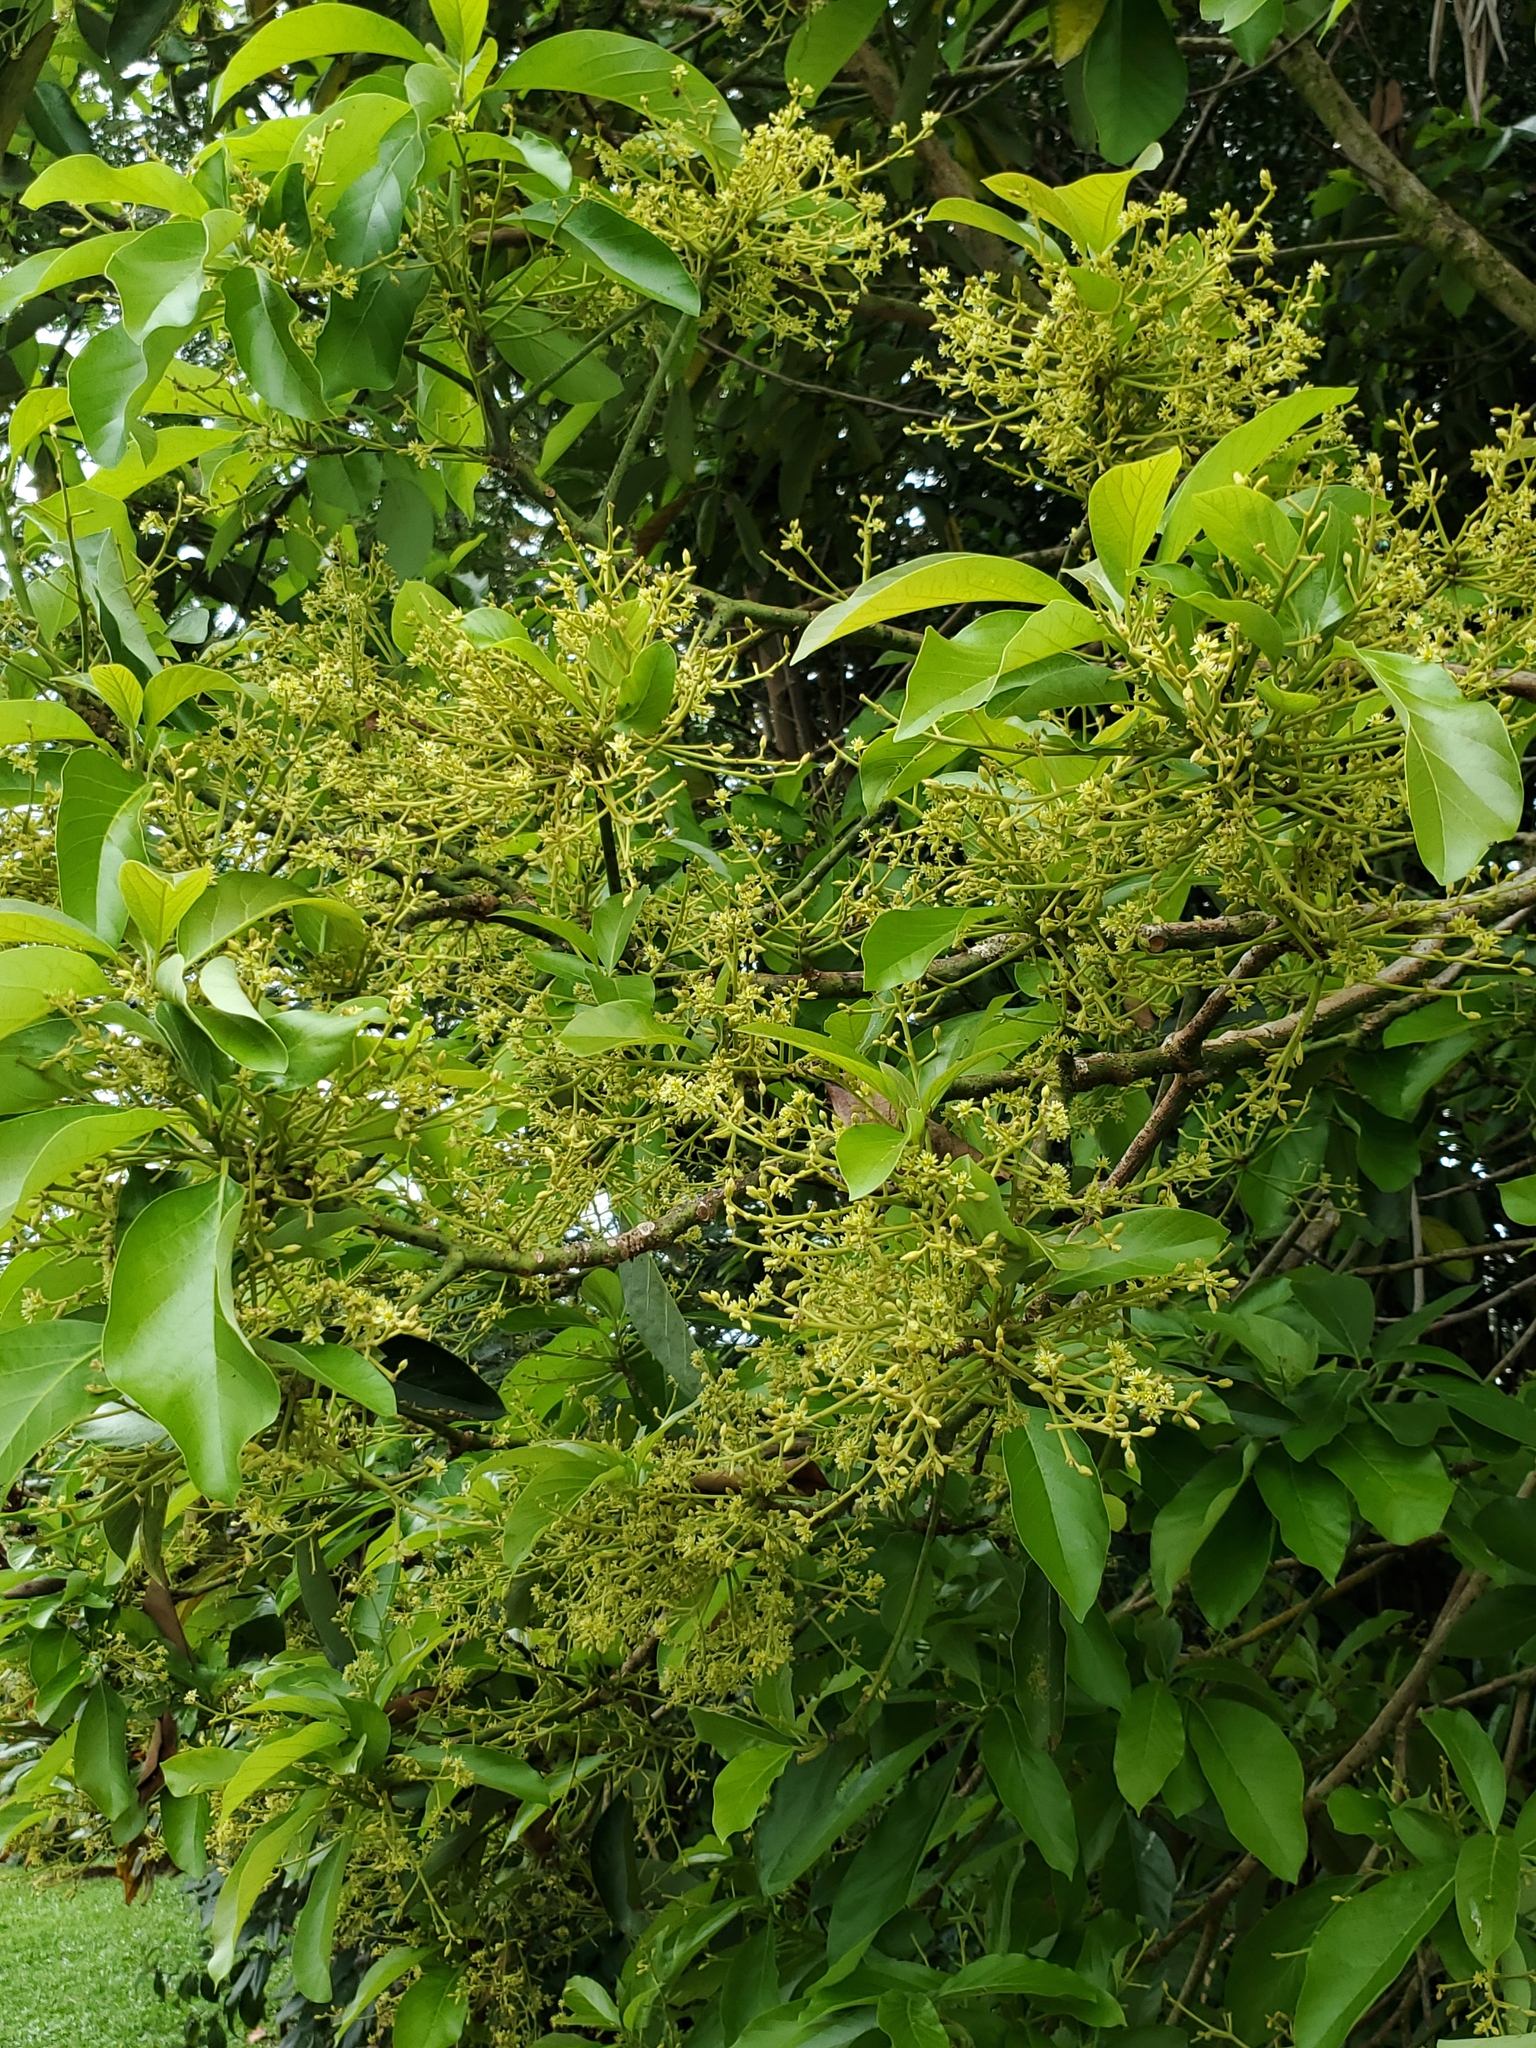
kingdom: Plantae
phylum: Tracheophyta
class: Magnoliopsida
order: Laurales
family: Lauraceae
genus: Persea
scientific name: Persea americana
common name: Avocado
